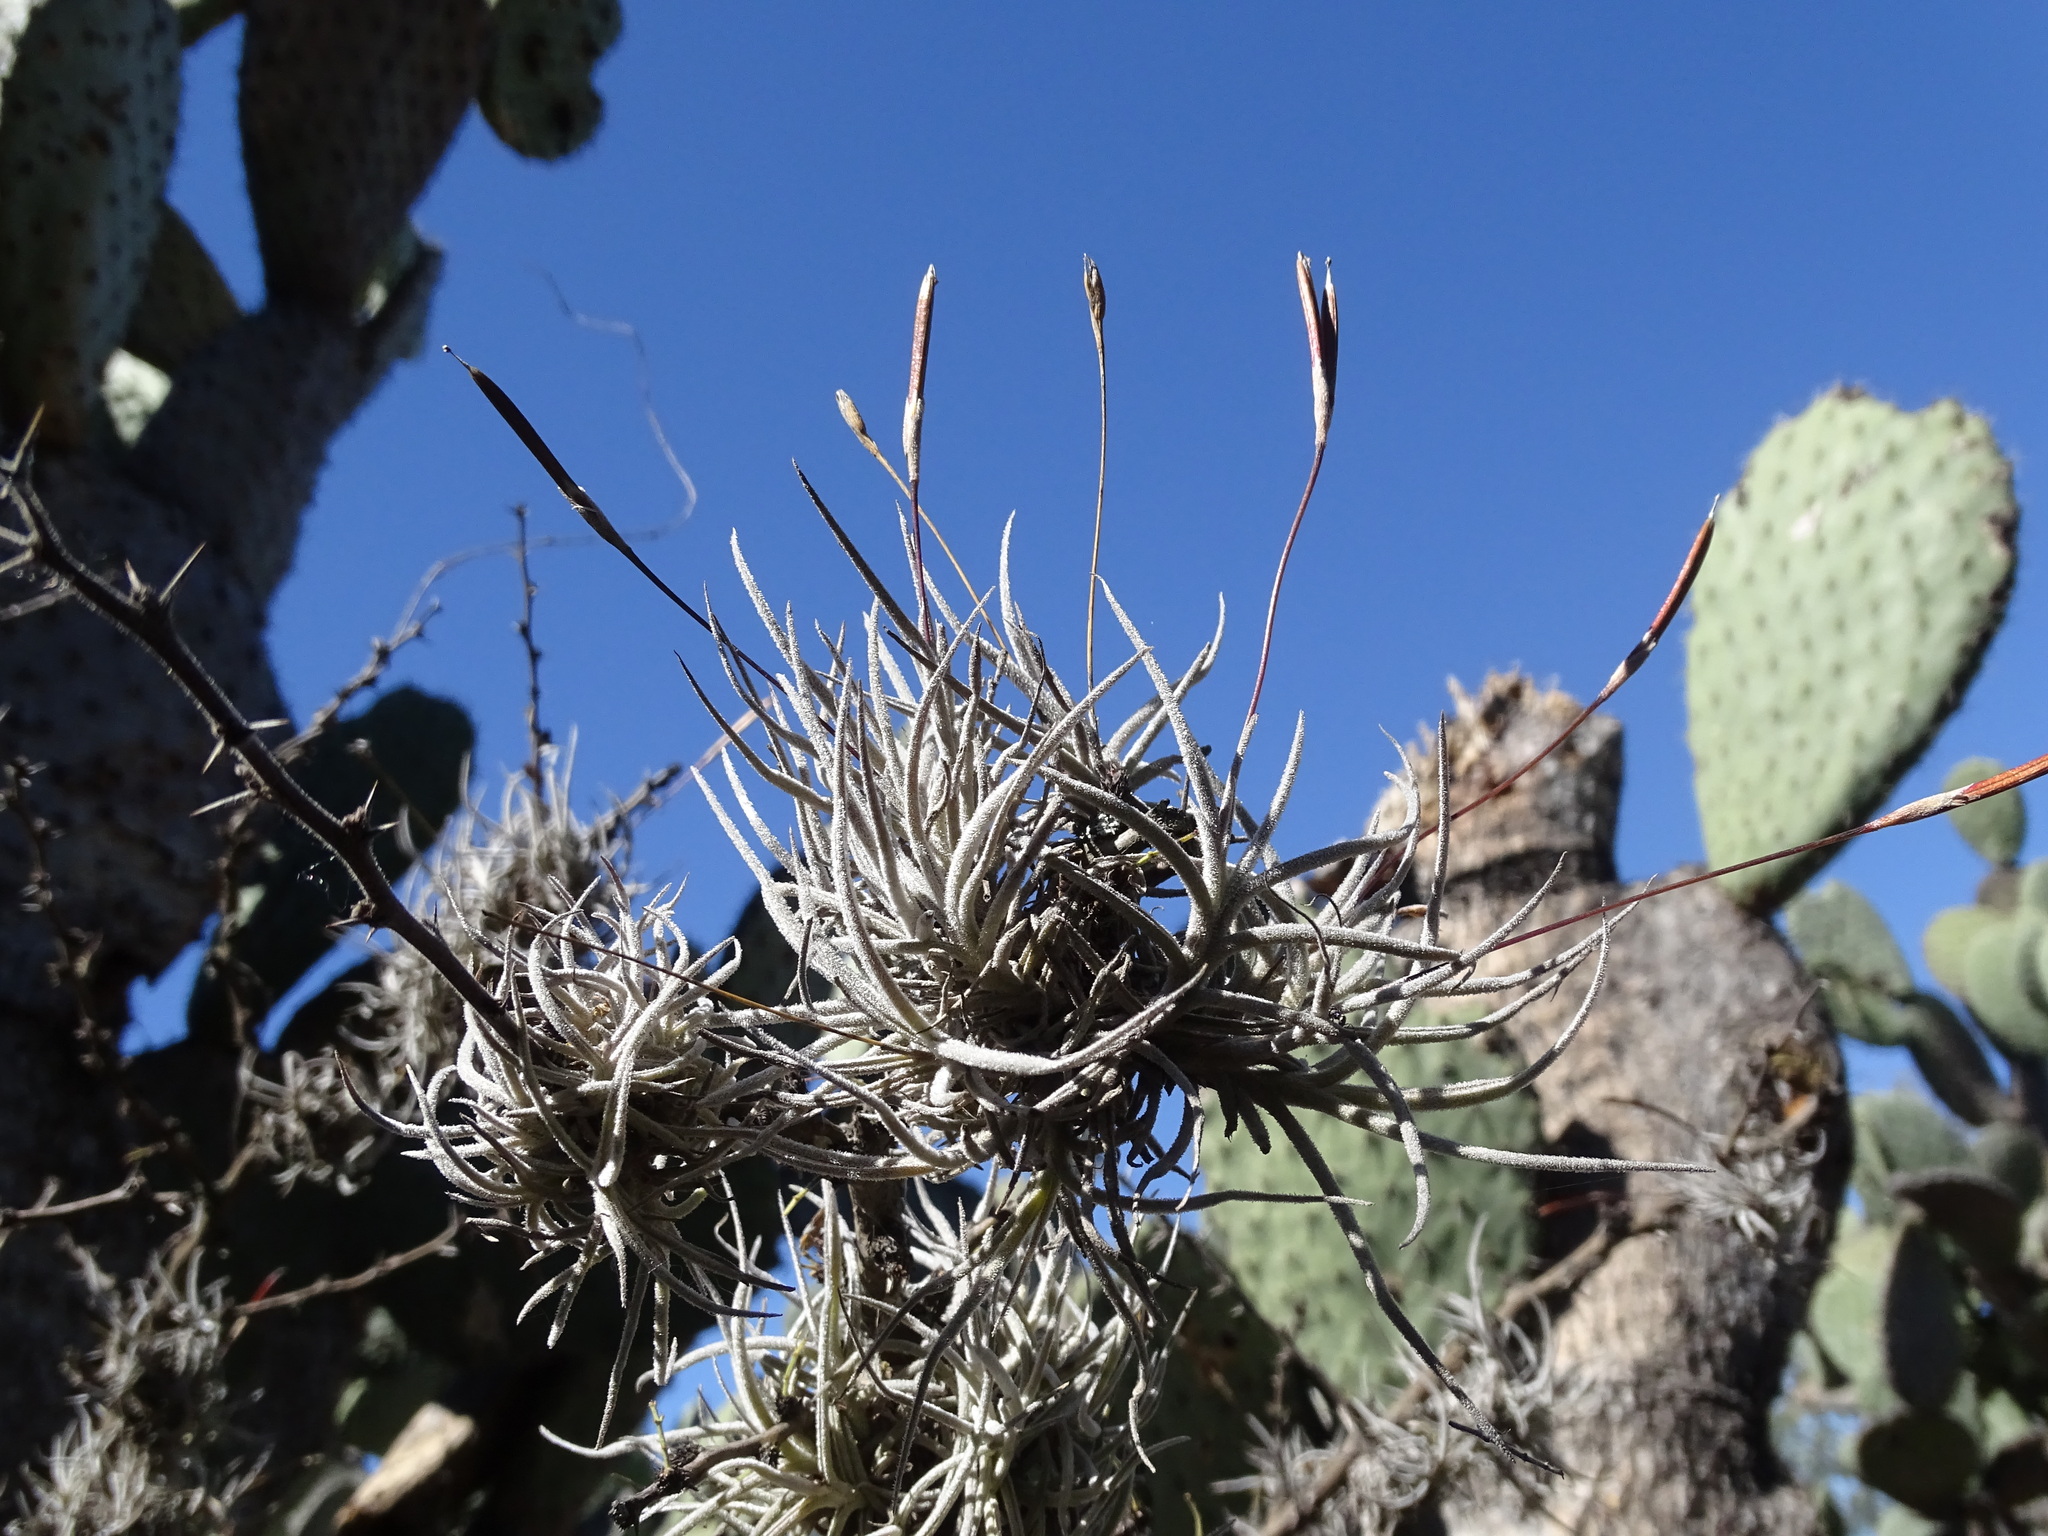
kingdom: Plantae
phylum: Tracheophyta
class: Liliopsida
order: Poales
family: Bromeliaceae
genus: Tillandsia
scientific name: Tillandsia recurvata
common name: Small ballmoss
